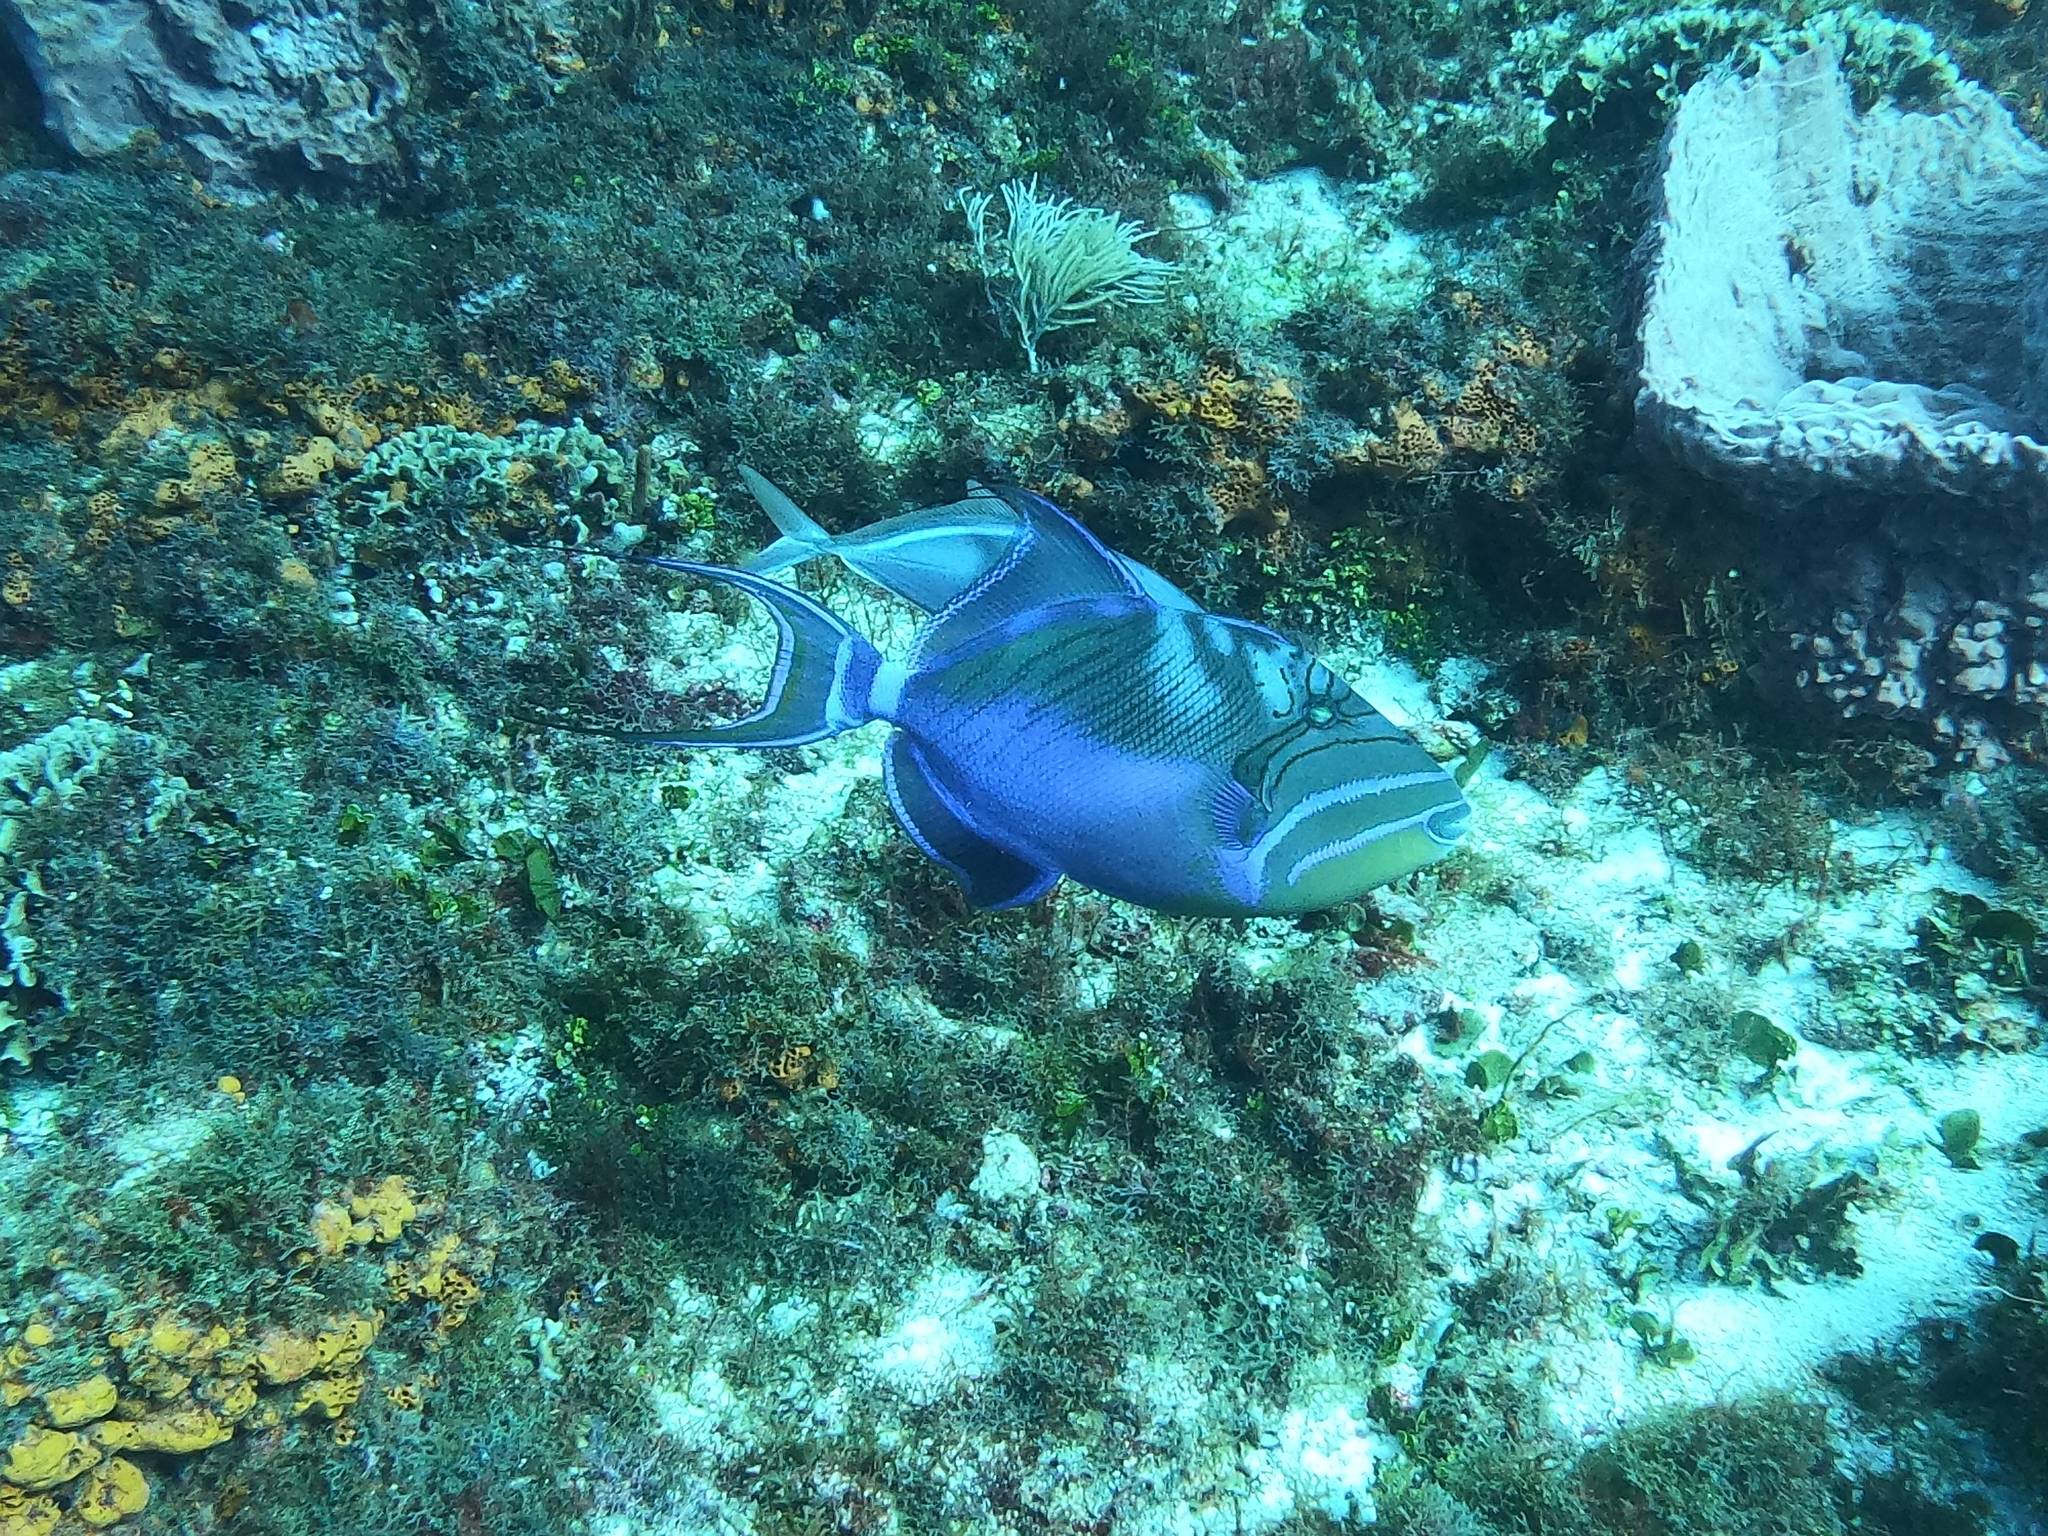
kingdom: Animalia
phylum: Chordata
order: Tetraodontiformes
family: Balistidae
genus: Balistes
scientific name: Balistes vetula
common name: Queen triggerfish
